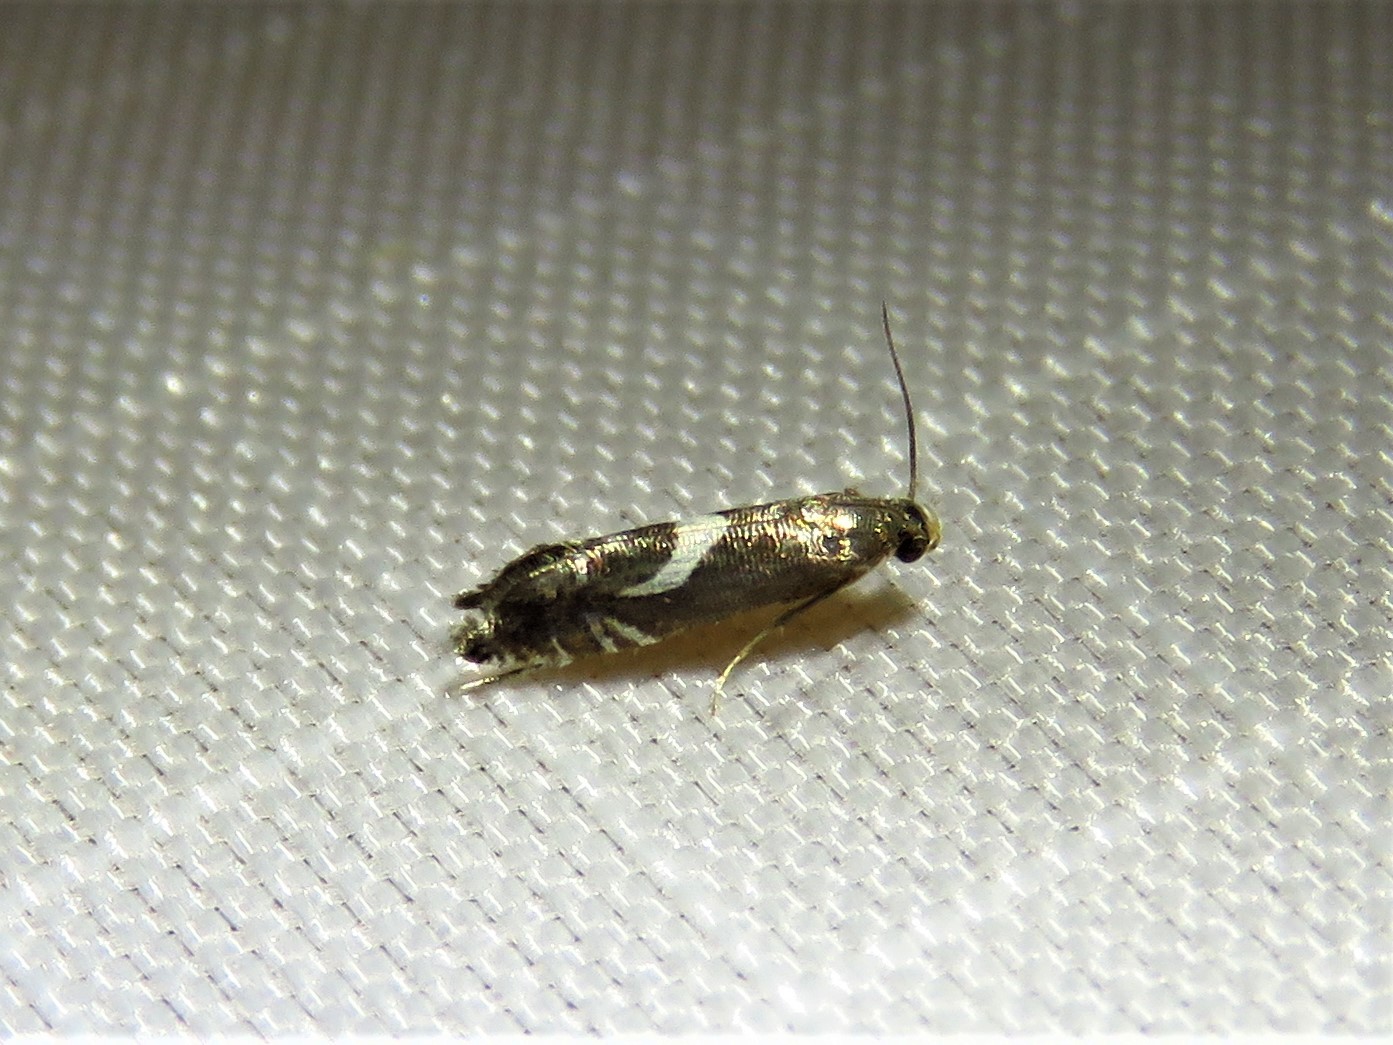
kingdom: Animalia
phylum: Arthropoda
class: Insecta
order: Lepidoptera
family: Glyphipterigidae
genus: Glyphipterix
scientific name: Glyphipterix Diploschizia impigritella
